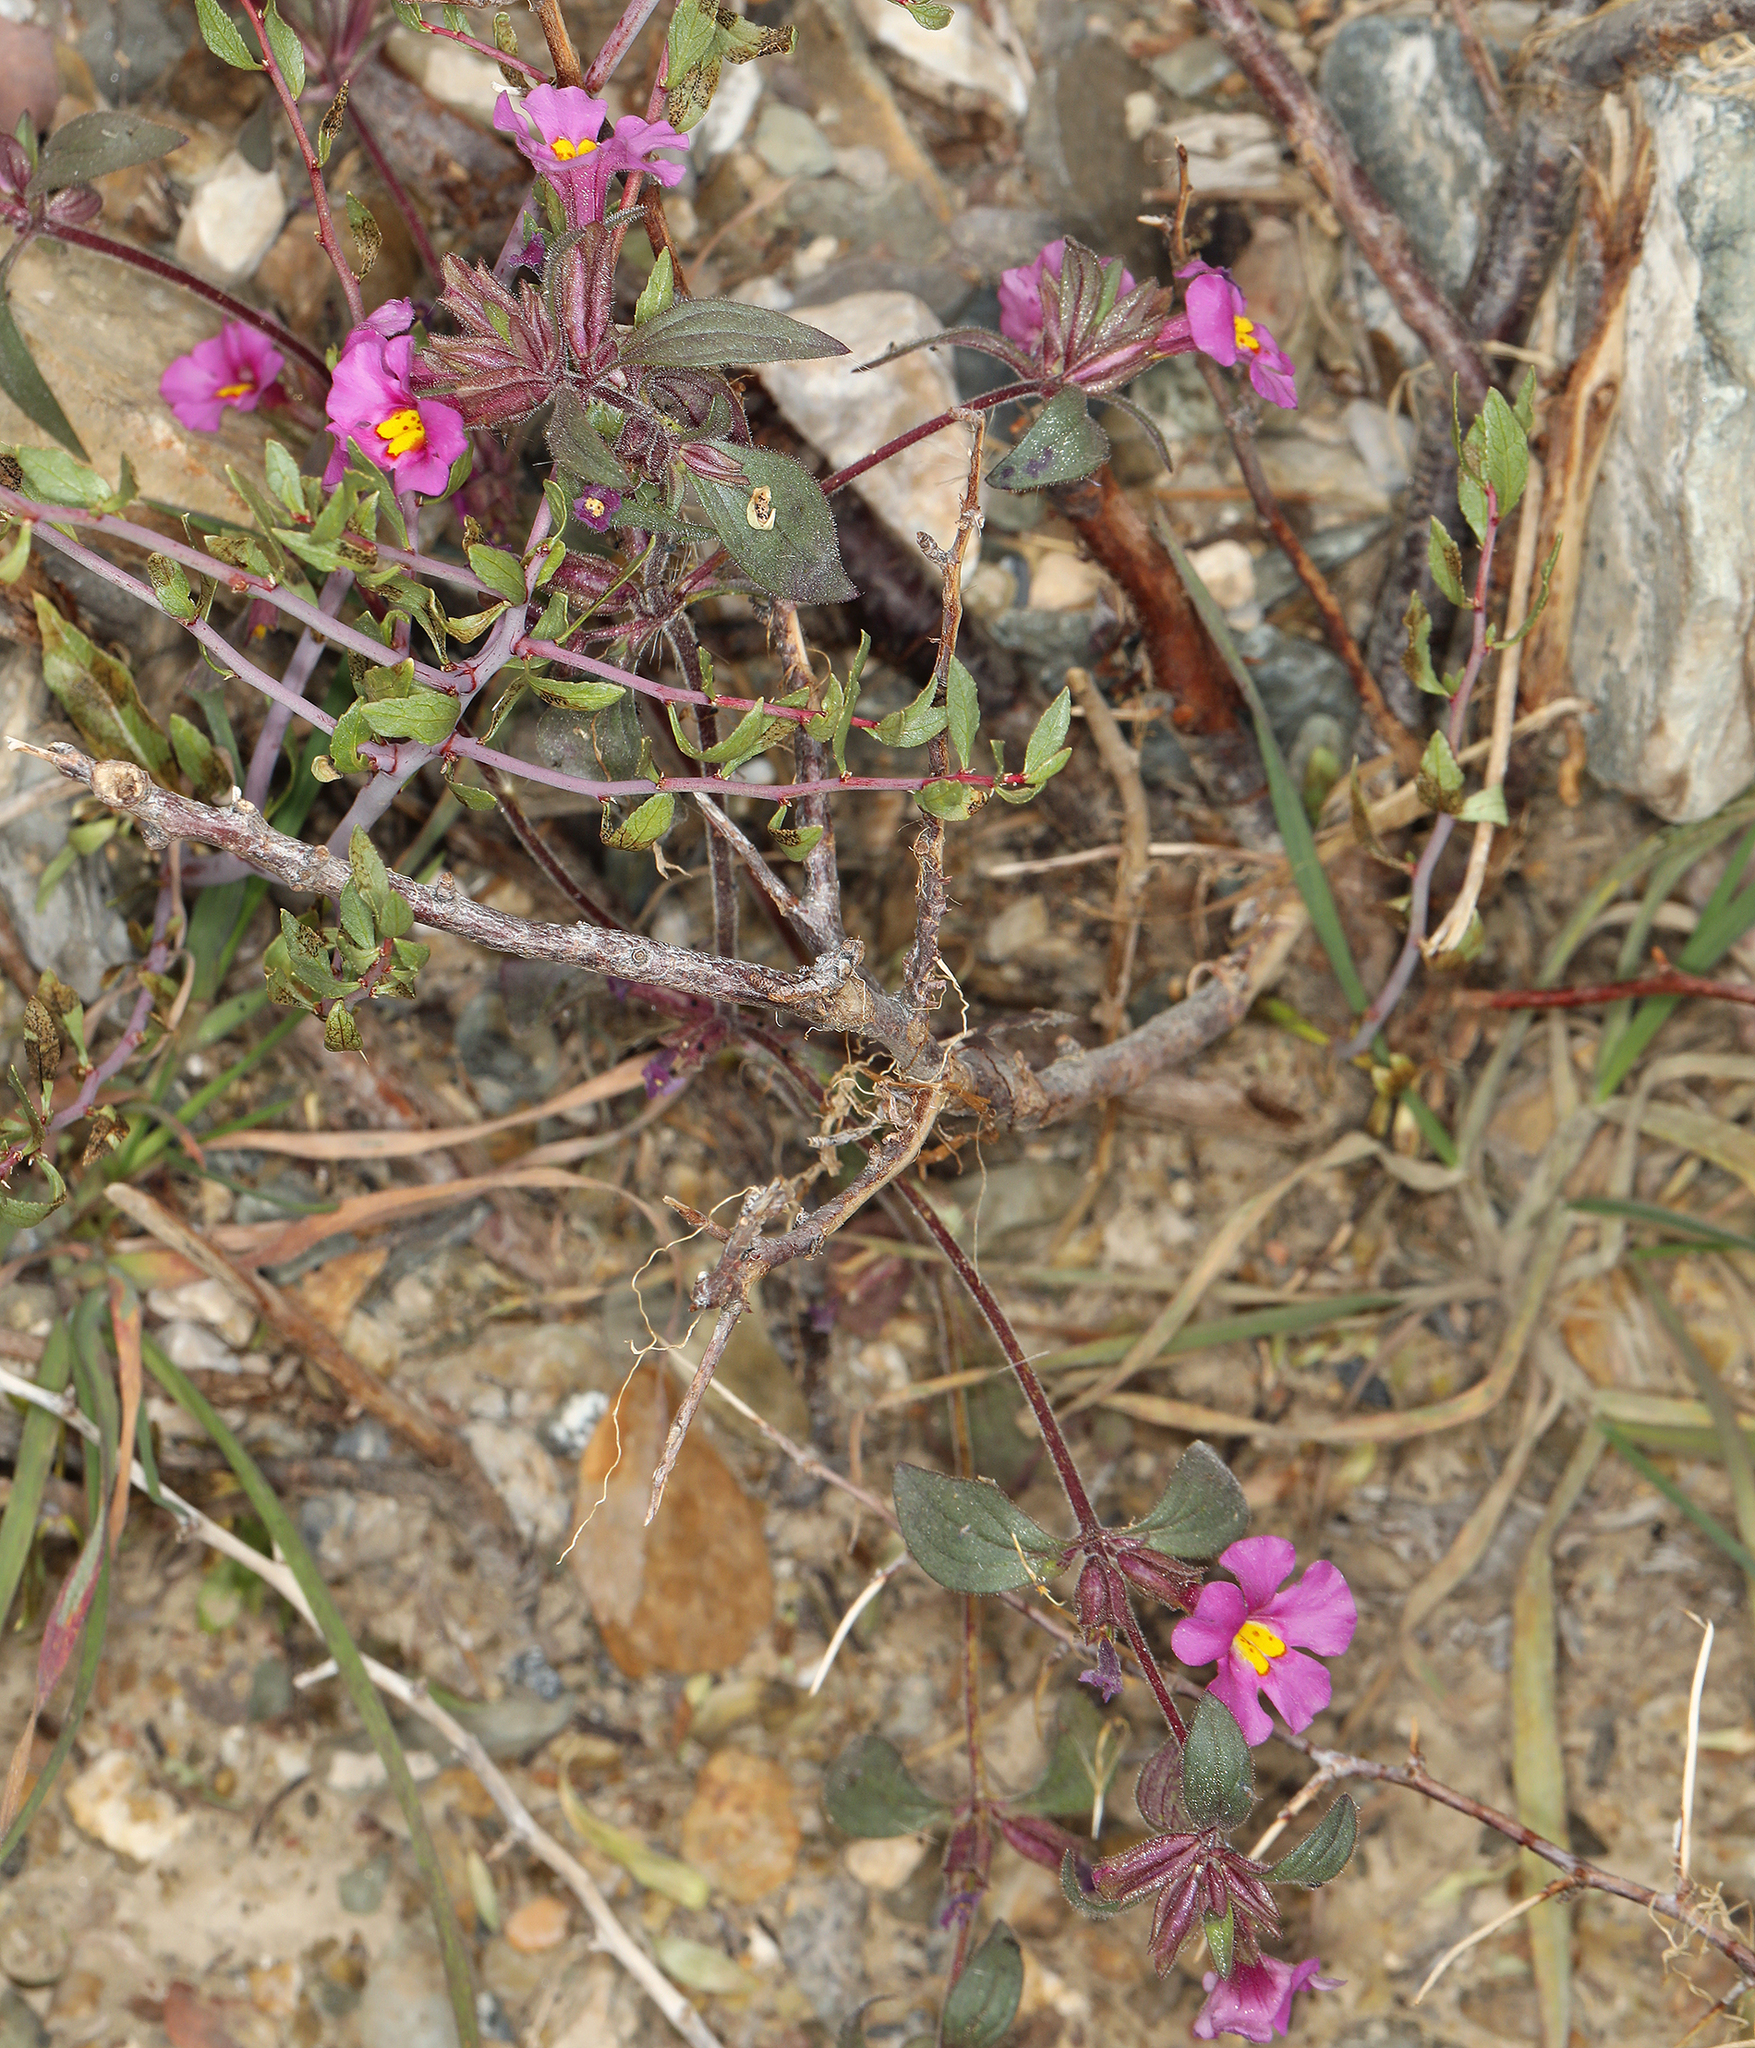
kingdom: Plantae
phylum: Tracheophyta
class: Magnoliopsida
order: Lamiales
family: Phrymaceae
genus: Diplacus
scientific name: Diplacus parryi
